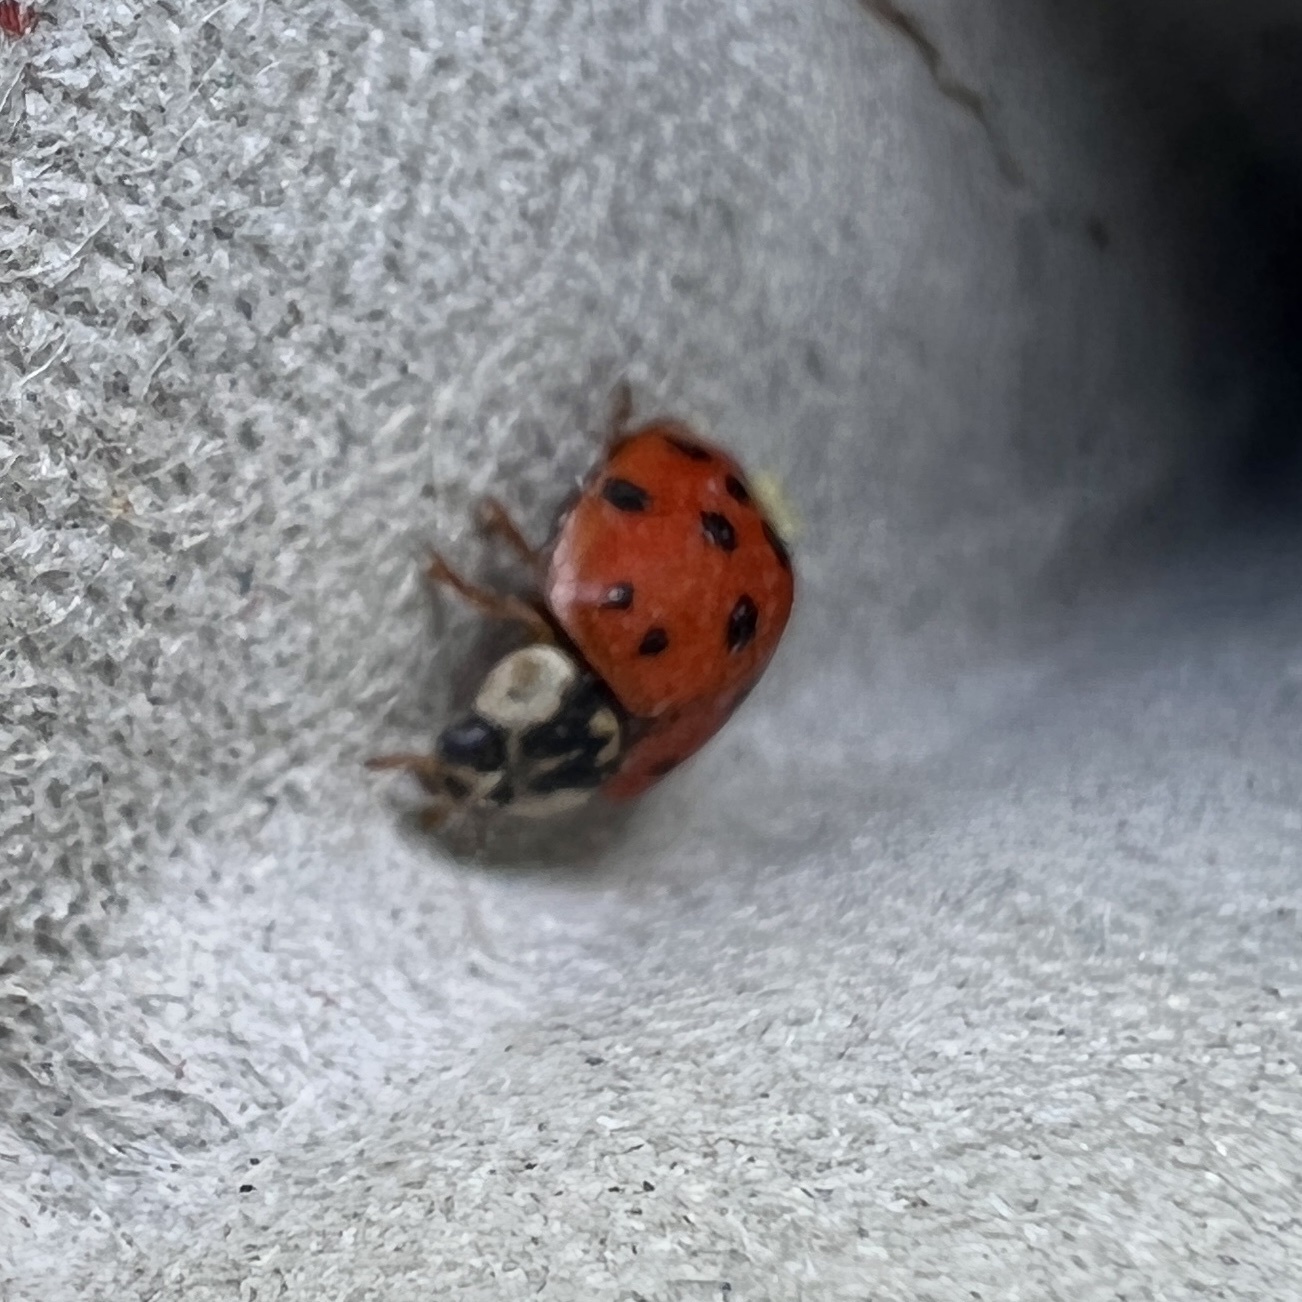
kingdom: Animalia
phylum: Arthropoda
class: Insecta
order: Coleoptera
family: Coccinellidae
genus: Harmonia
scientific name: Harmonia axyridis
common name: Harlequin ladybird
